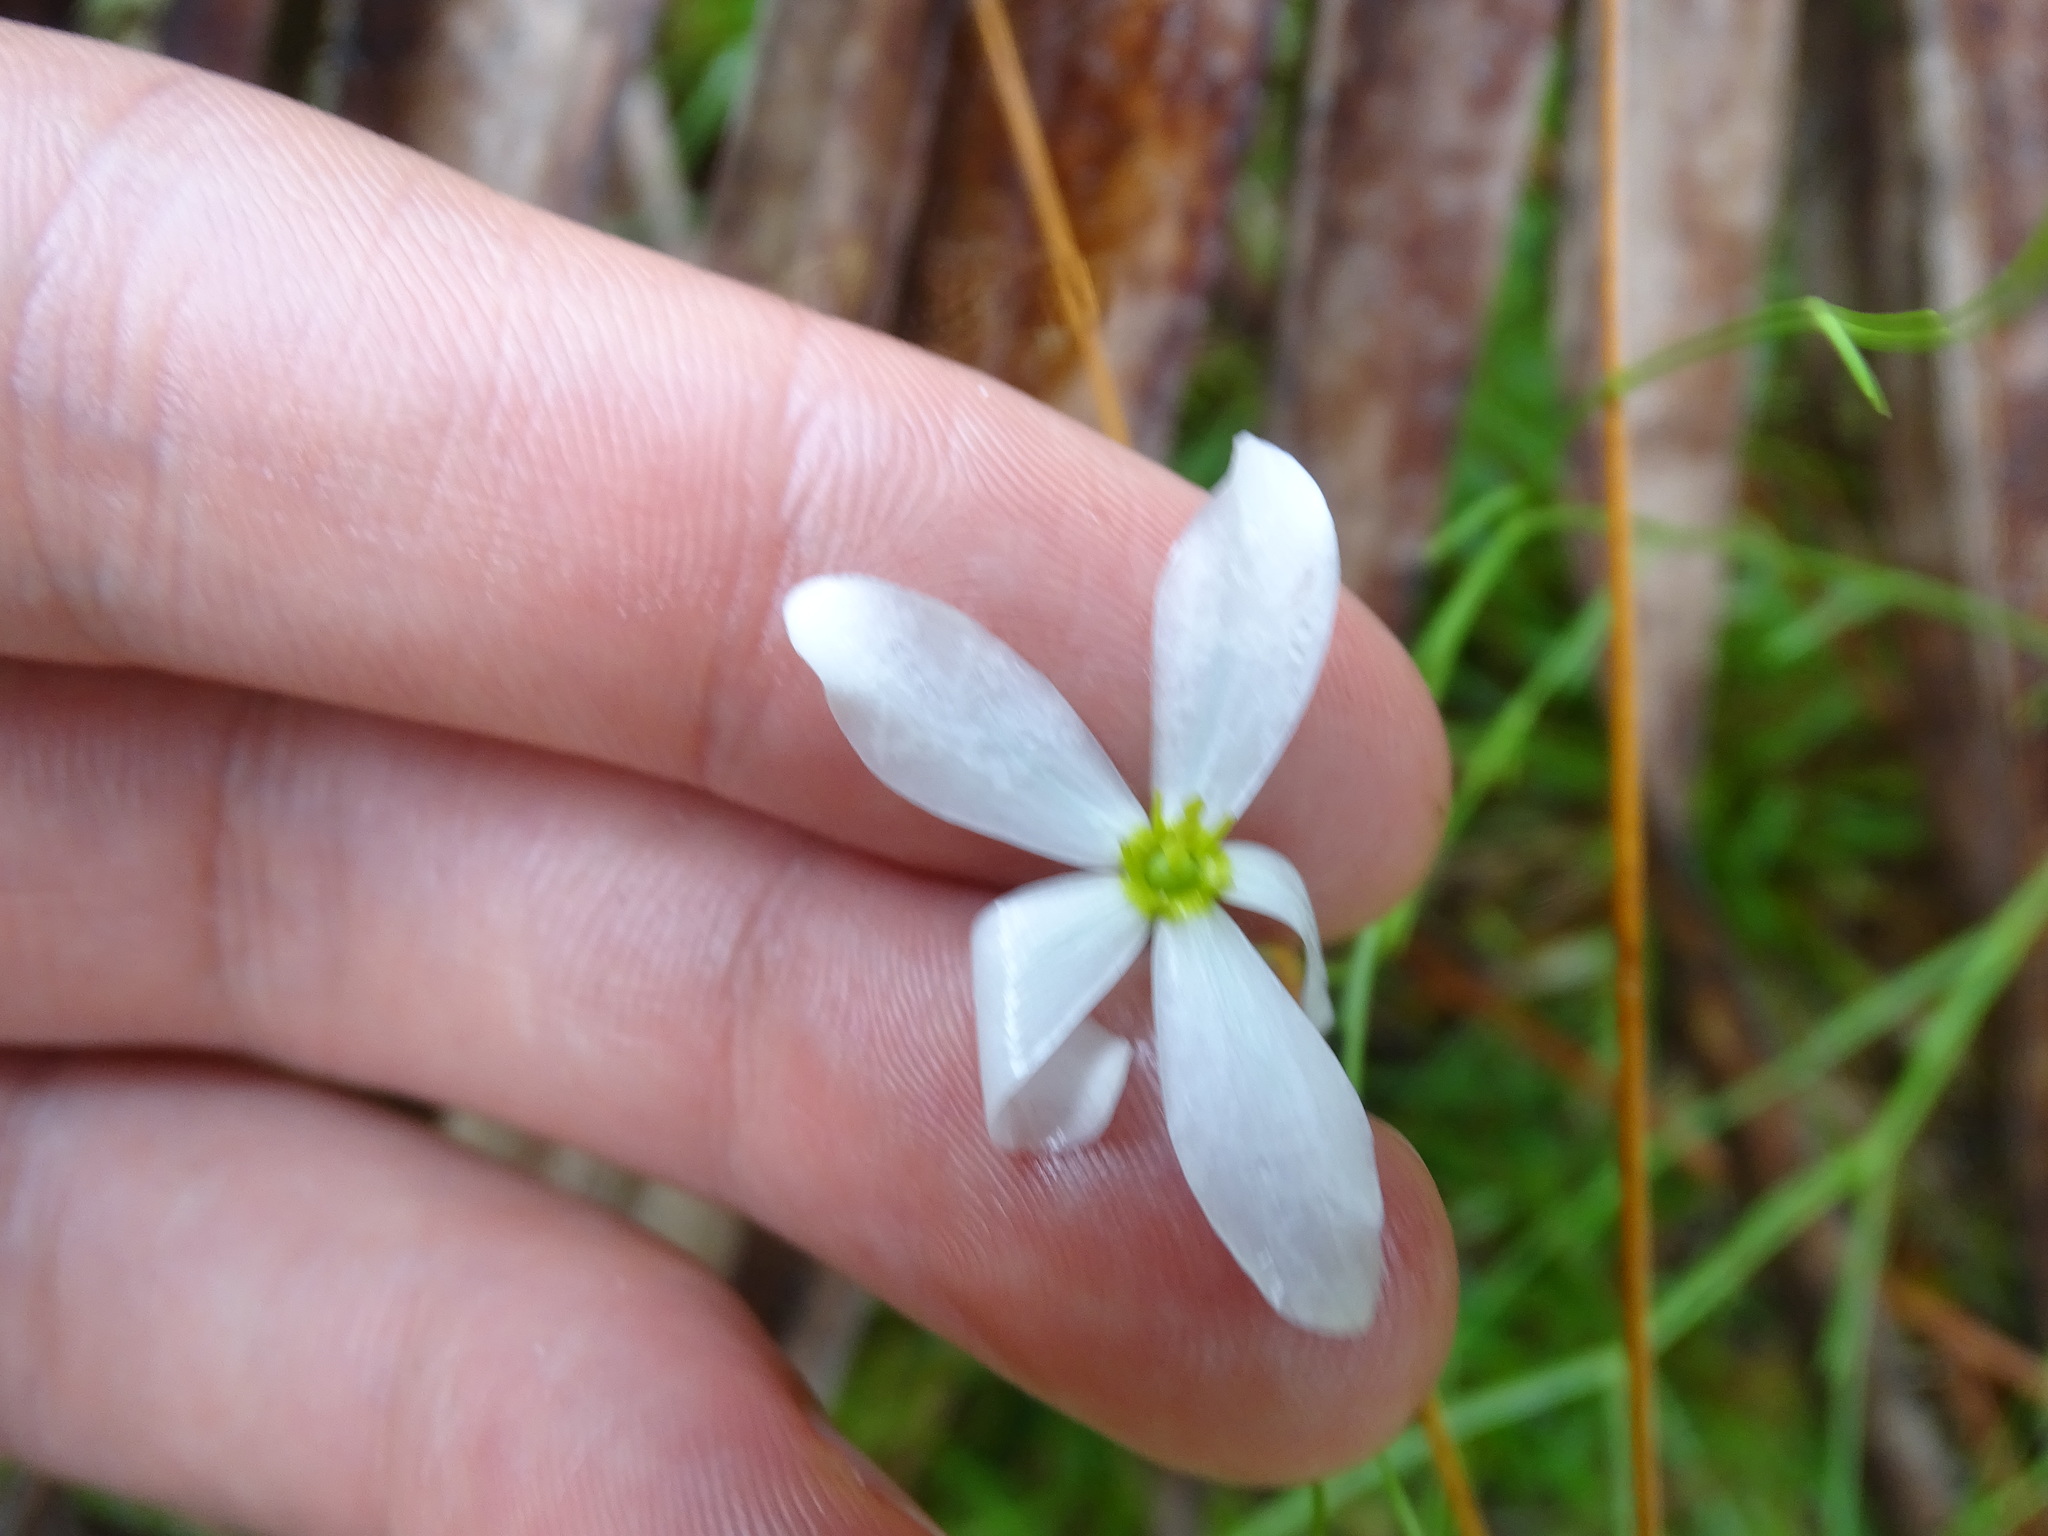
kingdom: Plantae
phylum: Tracheophyta
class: Magnoliopsida
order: Gentianales
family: Gentianaceae
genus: Sabatia
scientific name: Sabatia brevifolia
